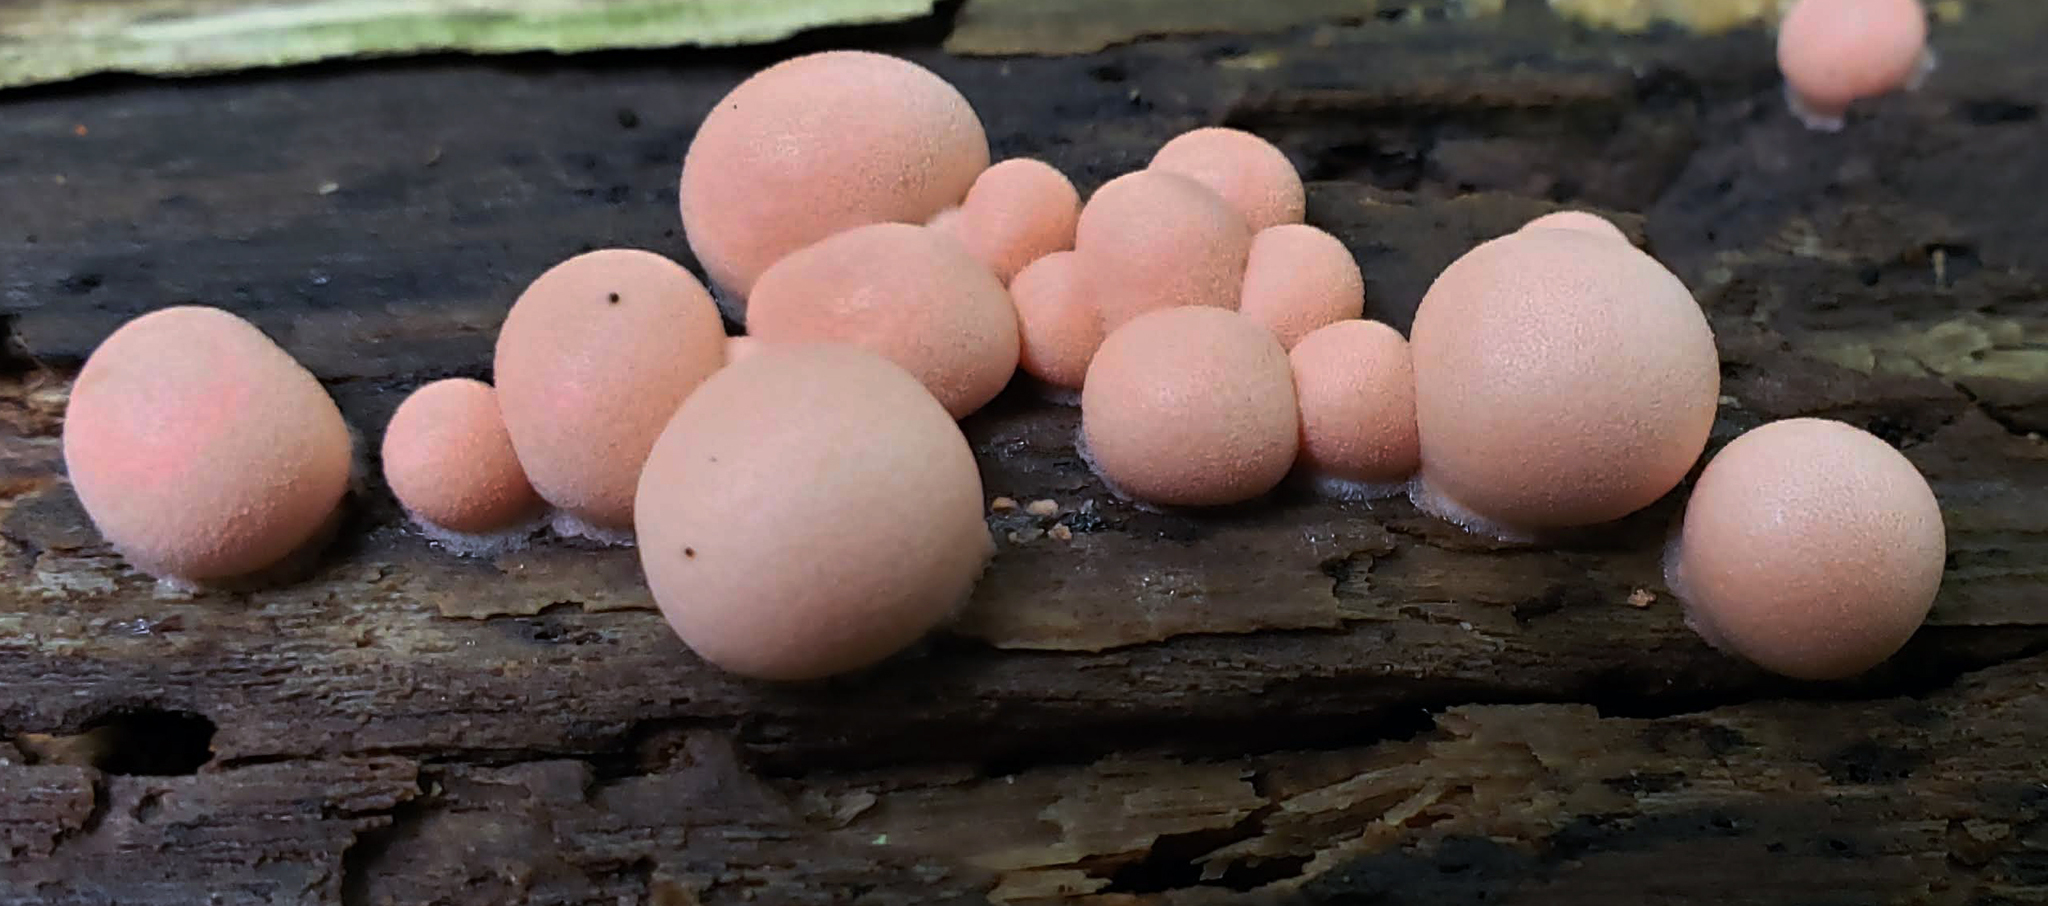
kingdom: Protozoa
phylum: Mycetozoa
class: Myxomycetes
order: Cribrariales
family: Tubiferaceae
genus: Lycogala
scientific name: Lycogala epidendrum
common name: Wolf's milk
